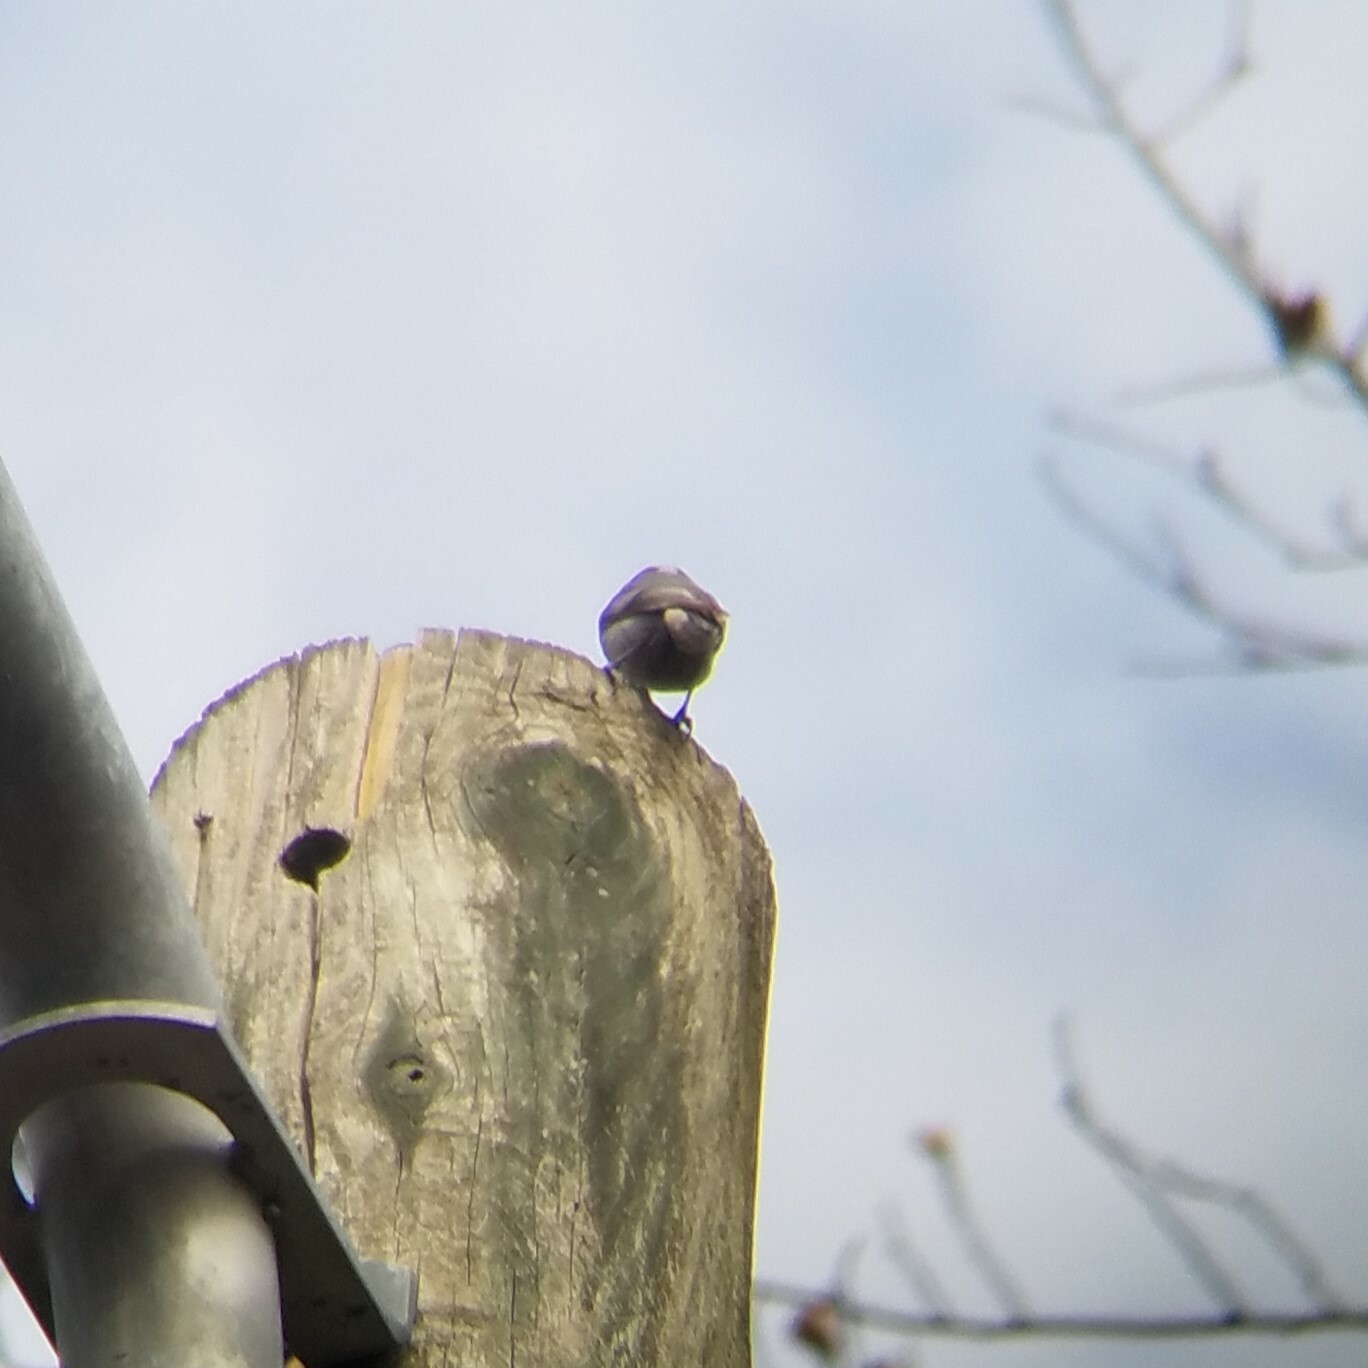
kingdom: Animalia
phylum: Chordata
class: Aves
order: Passeriformes
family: Sittidae
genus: Sitta
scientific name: Sitta pusilla
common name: Brown-headed nuthatch
